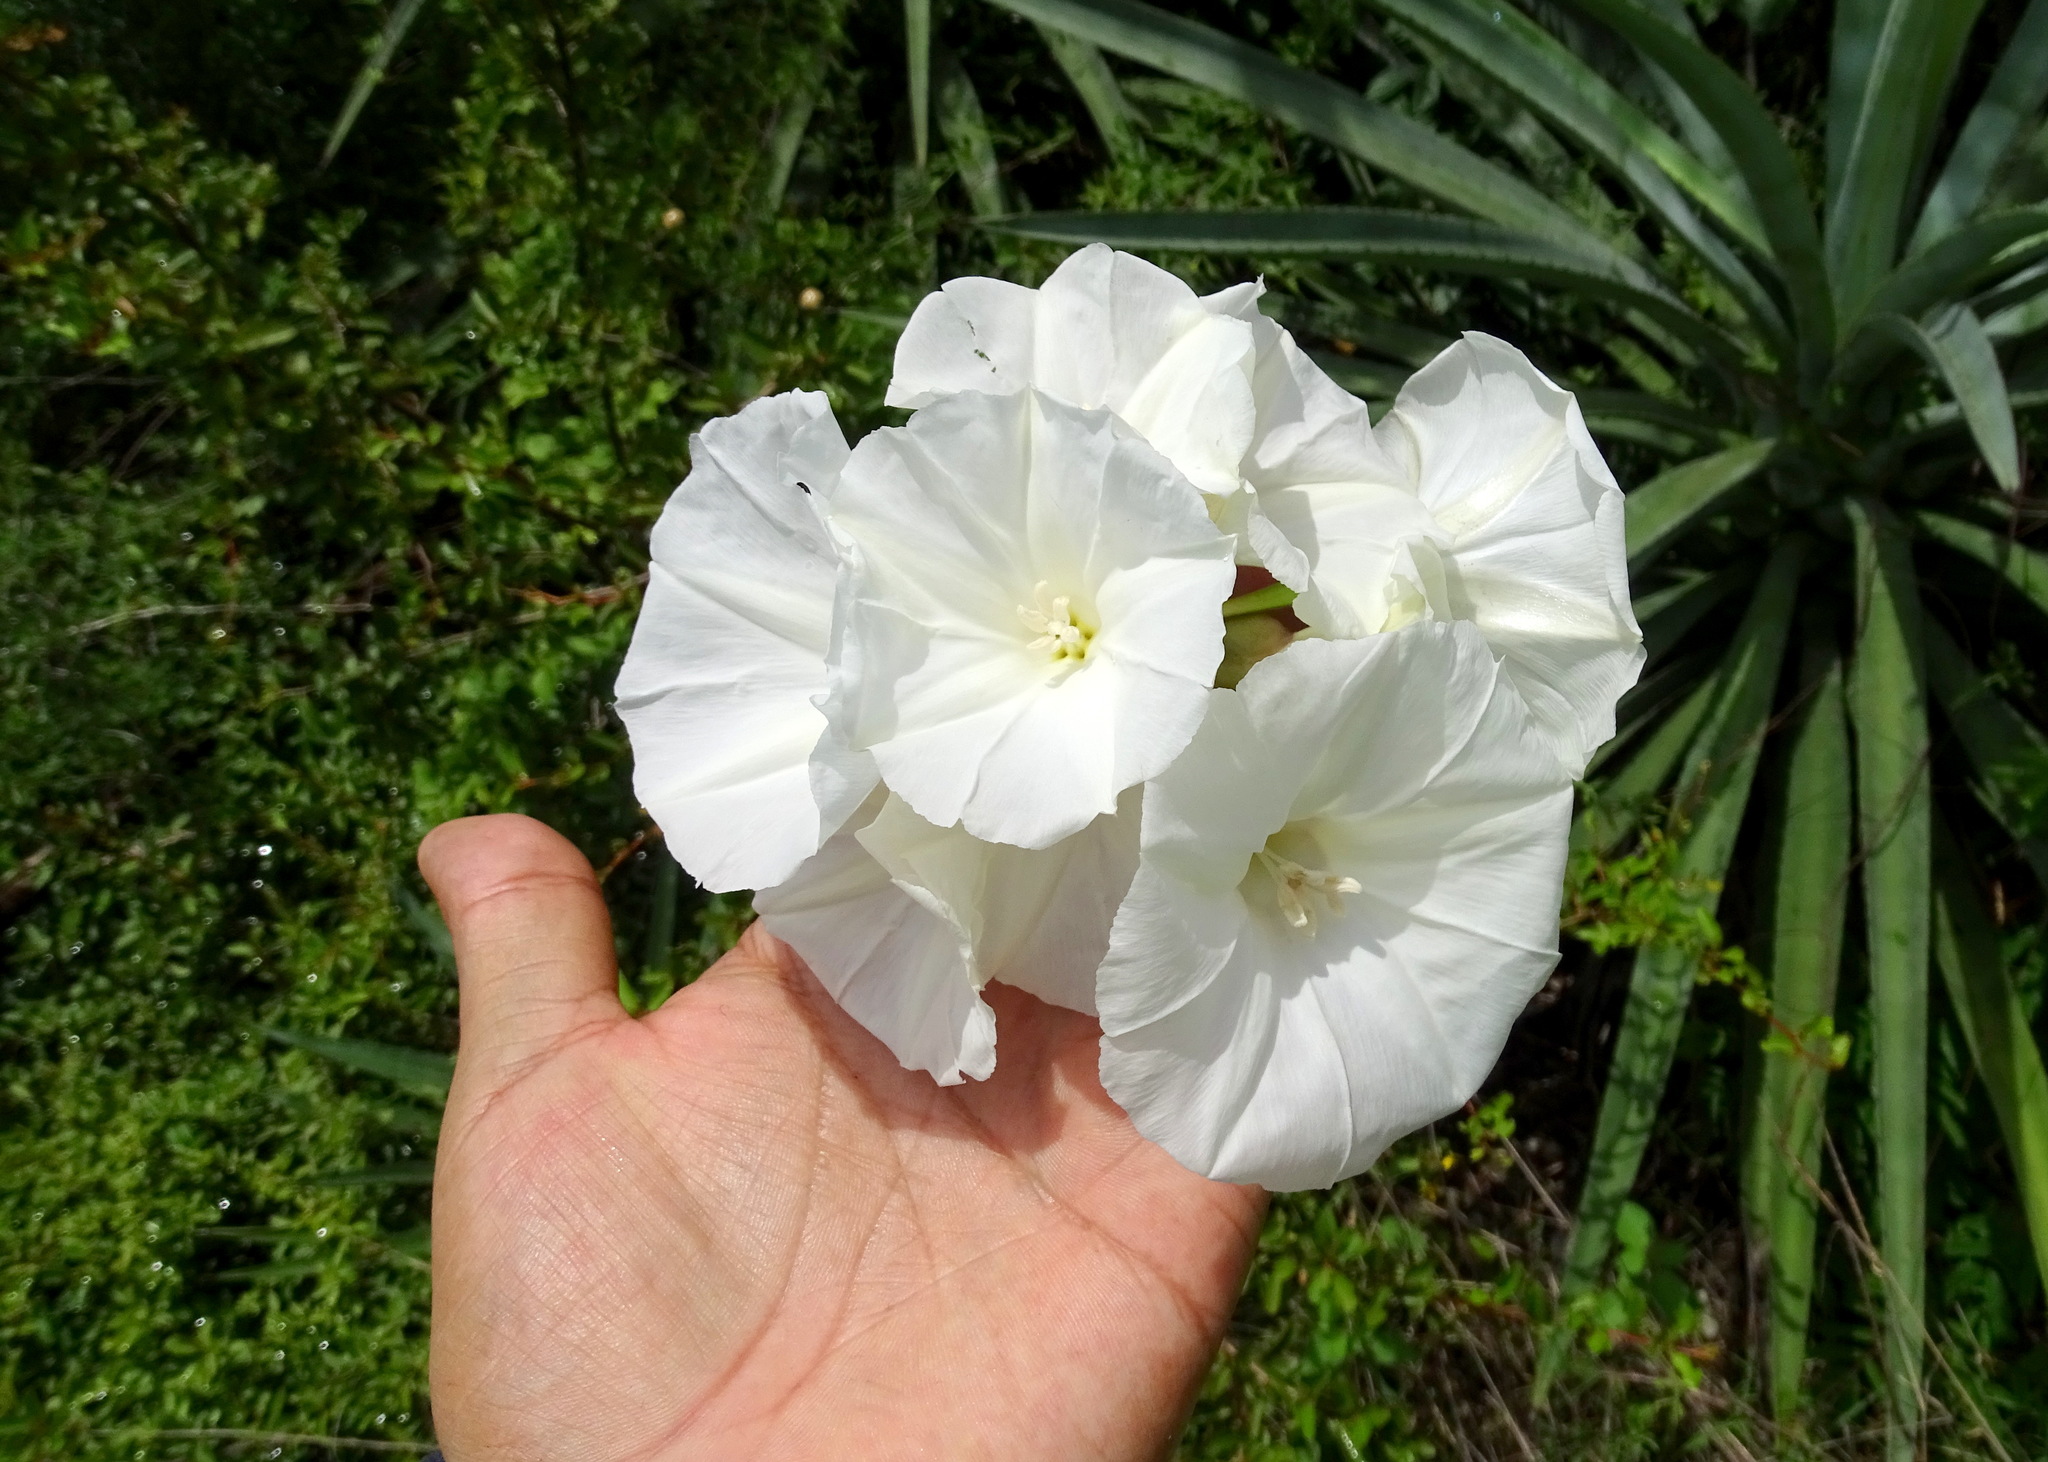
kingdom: Plantae
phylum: Tracheophyta
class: Magnoliopsida
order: Solanales
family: Convolvulaceae
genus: Operculina
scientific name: Operculina pinnatifida
